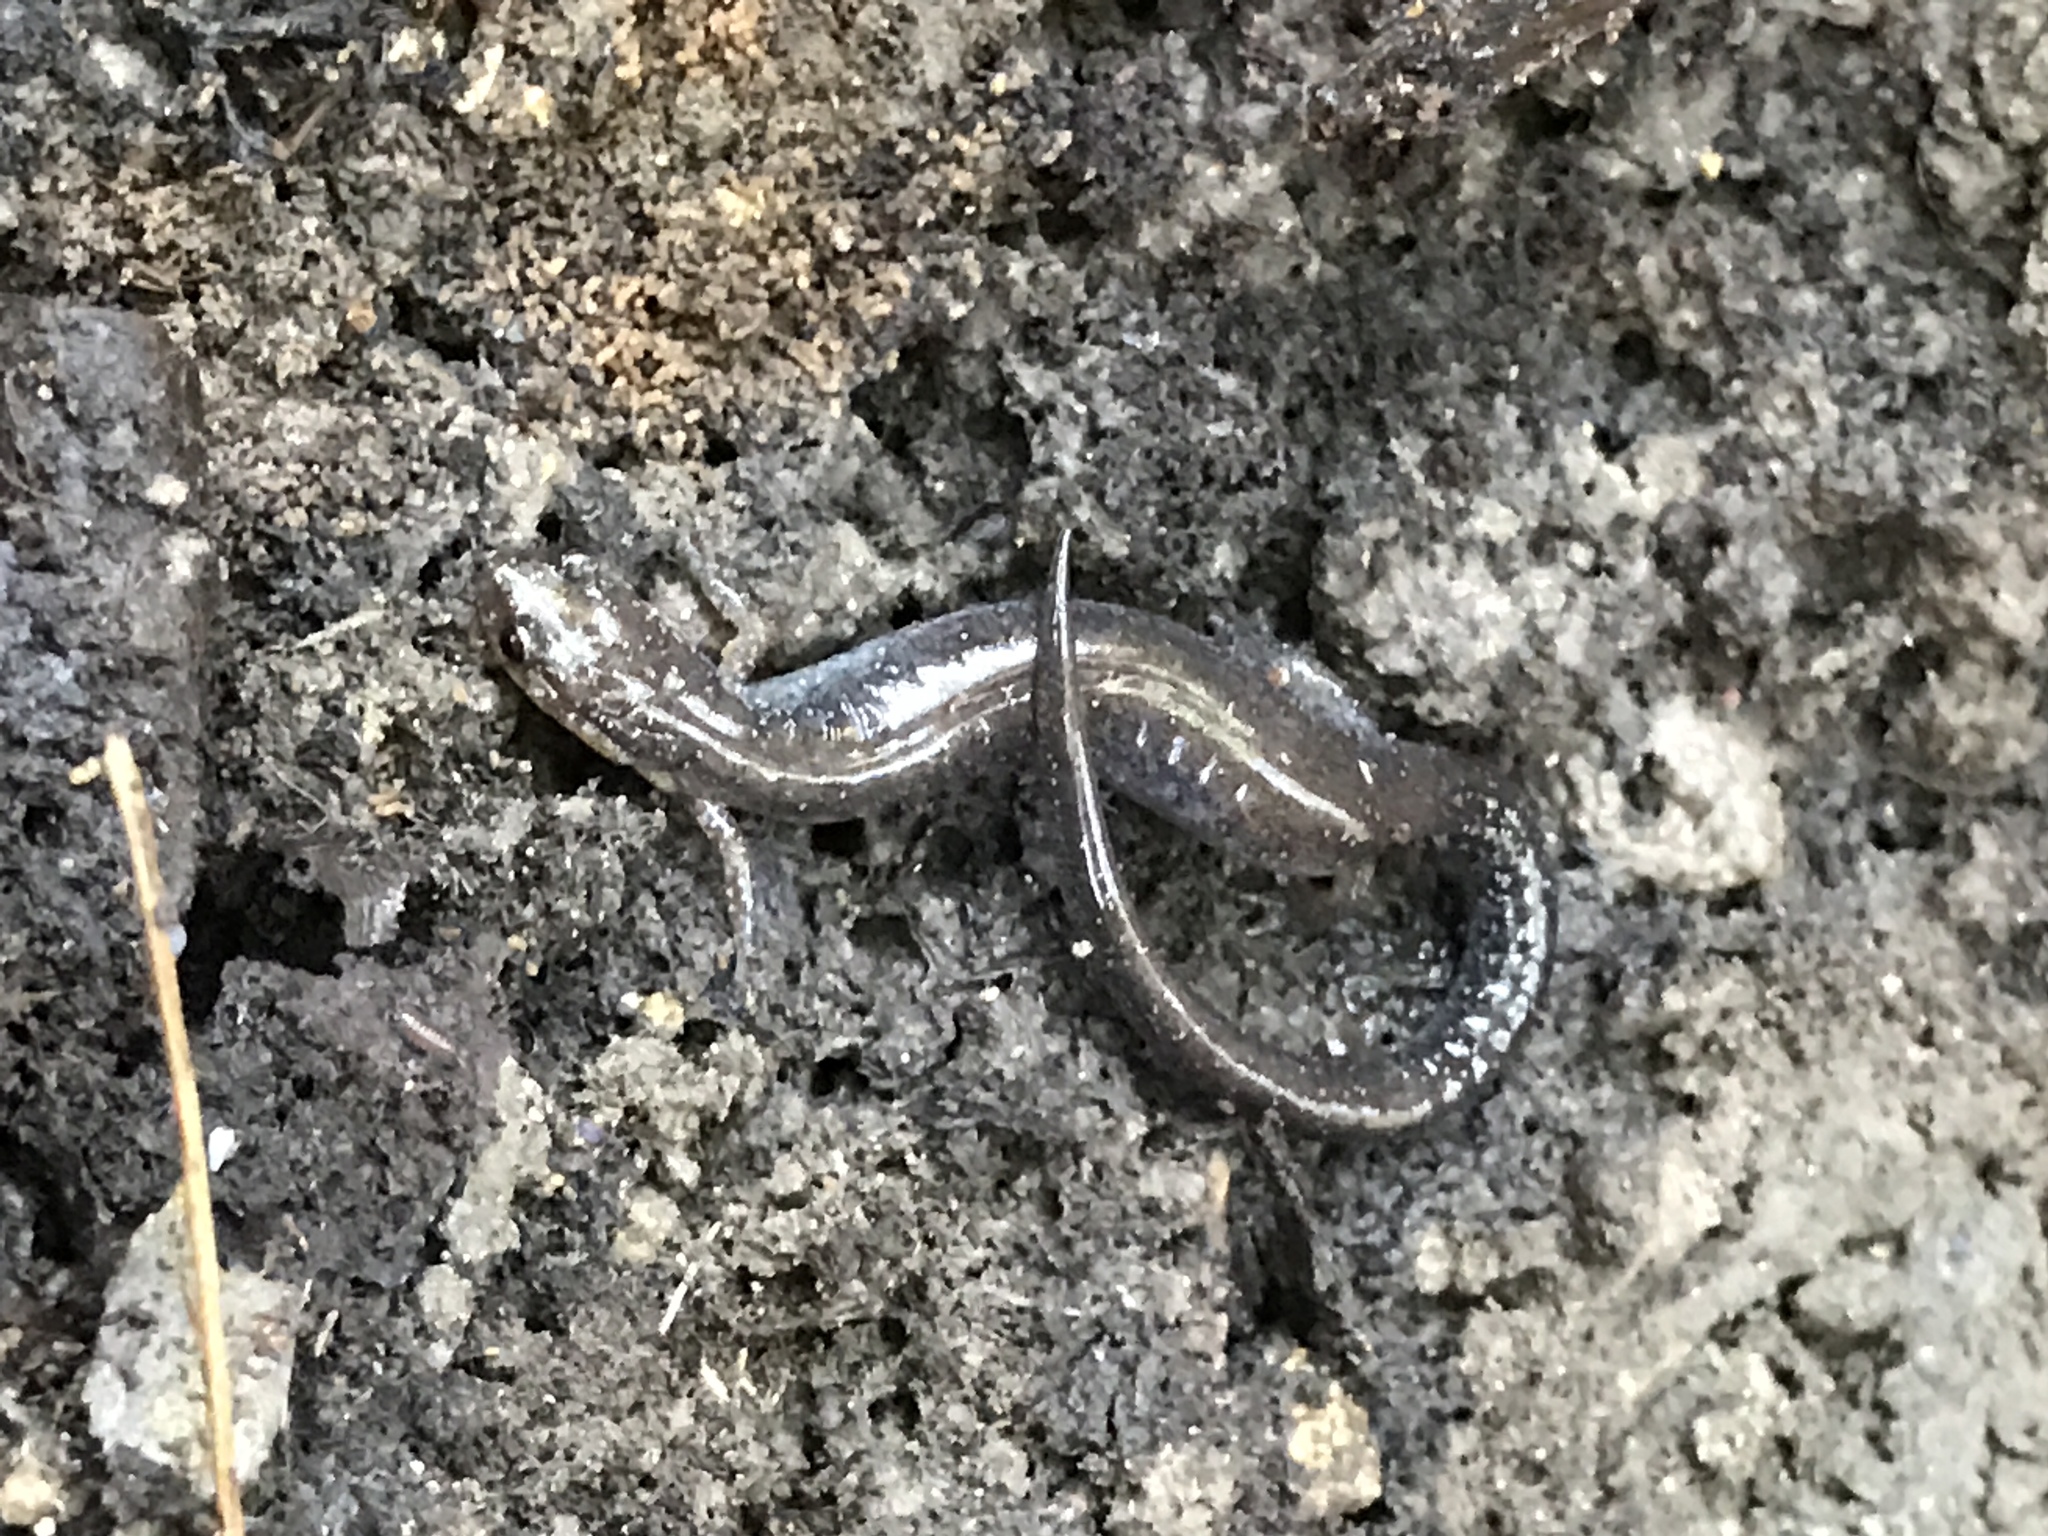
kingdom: Animalia
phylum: Chordata
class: Amphibia
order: Caudata
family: Plethodontidae
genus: Plethodon
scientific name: Plethodon cinereus
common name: Redback salamander
